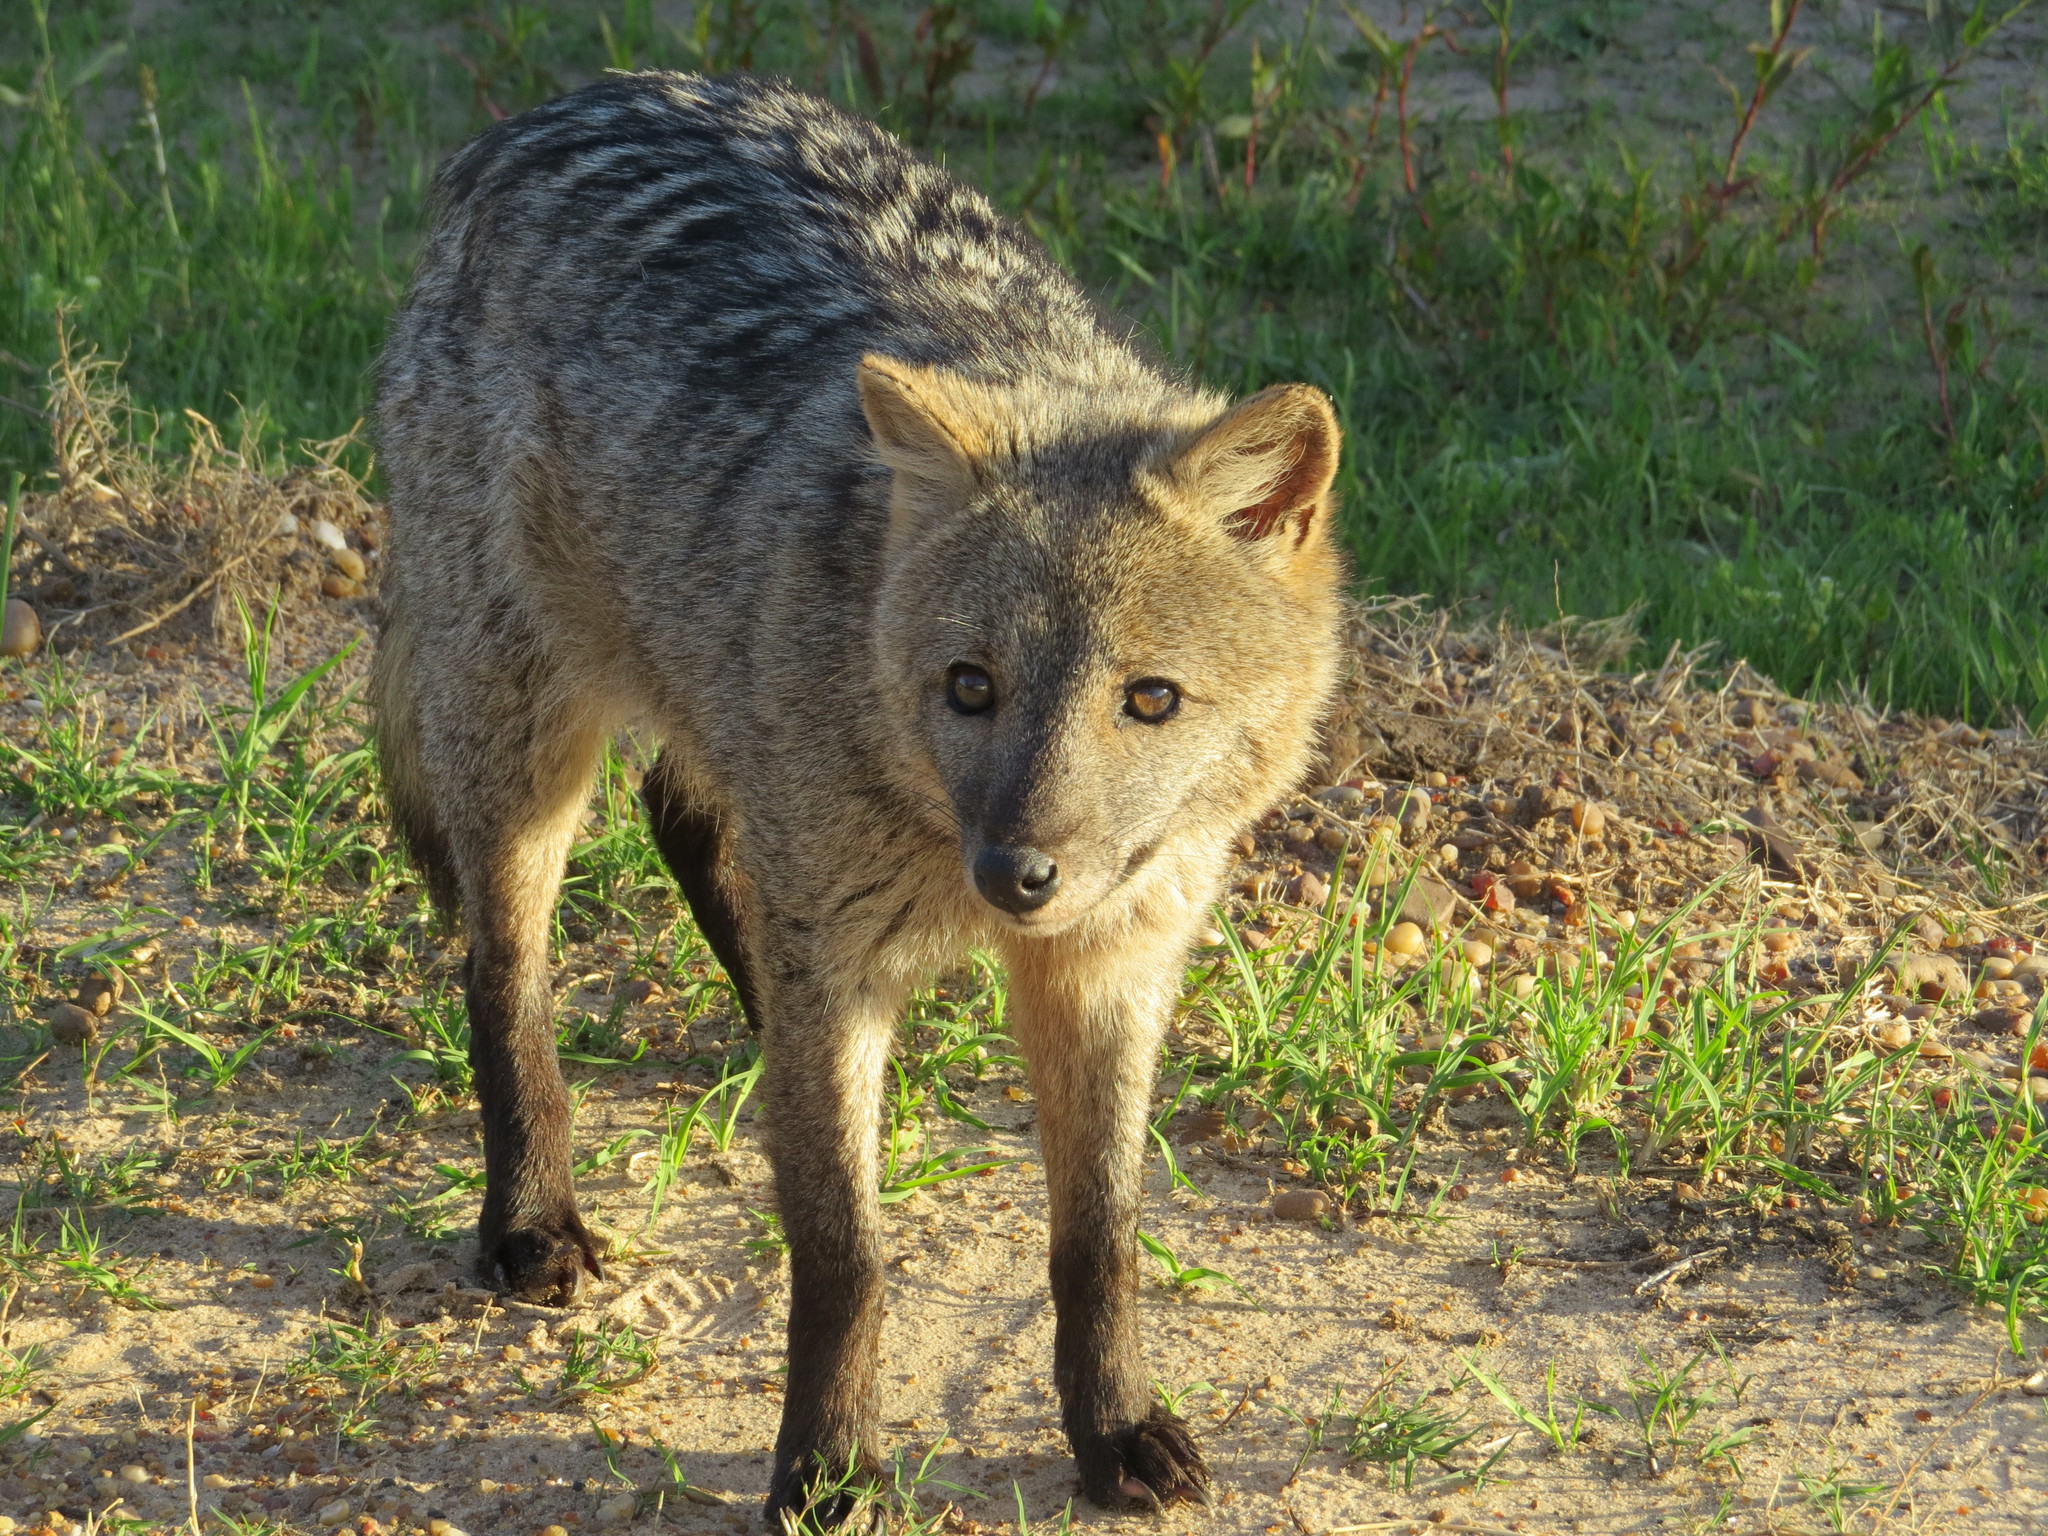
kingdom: Animalia
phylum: Chordata
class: Mammalia
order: Carnivora
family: Canidae
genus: Cerdocyon
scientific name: Cerdocyon thous
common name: Crab-eating fox
